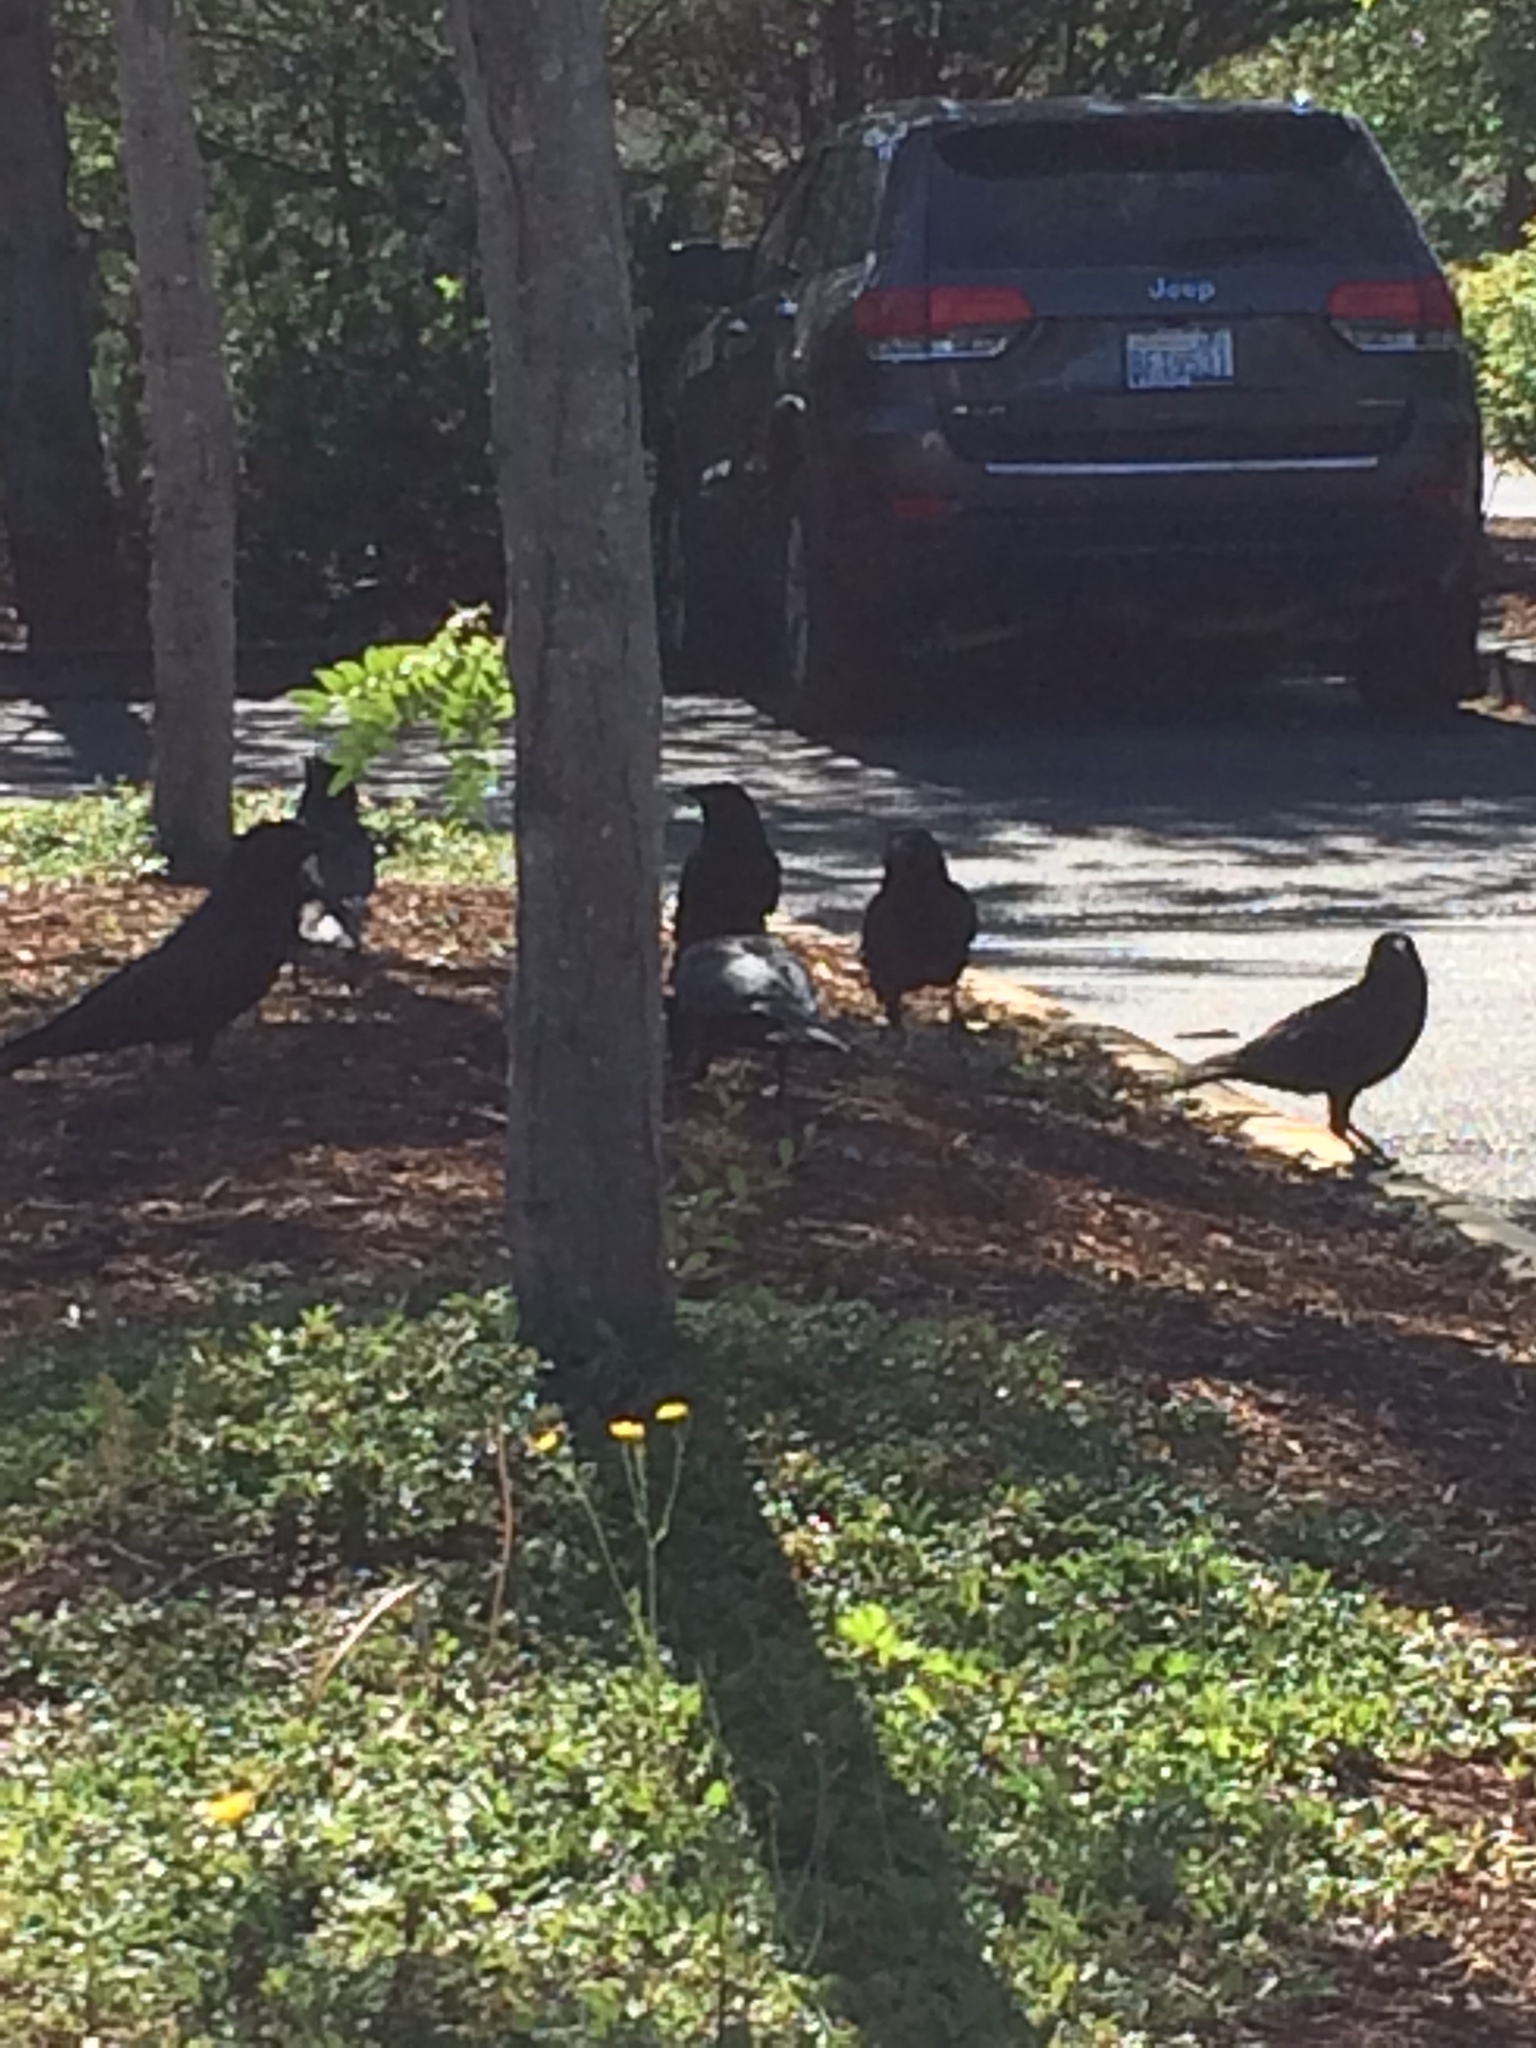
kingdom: Animalia
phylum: Chordata
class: Aves
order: Passeriformes
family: Corvidae
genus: Corvus
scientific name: Corvus brachyrhynchos
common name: American crow
